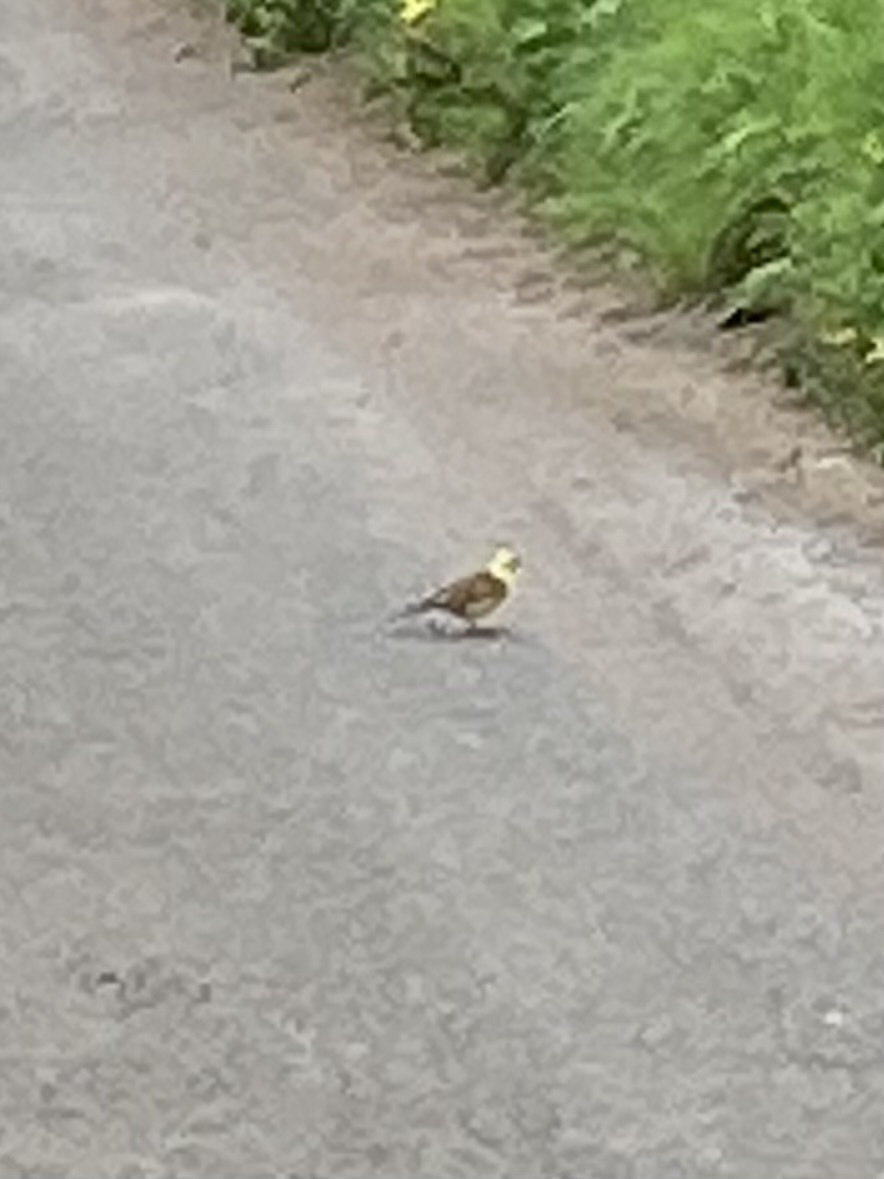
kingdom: Animalia
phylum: Chordata
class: Aves
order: Passeriformes
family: Emberizidae
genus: Emberiza
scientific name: Emberiza citrinella
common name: Yellowhammer
